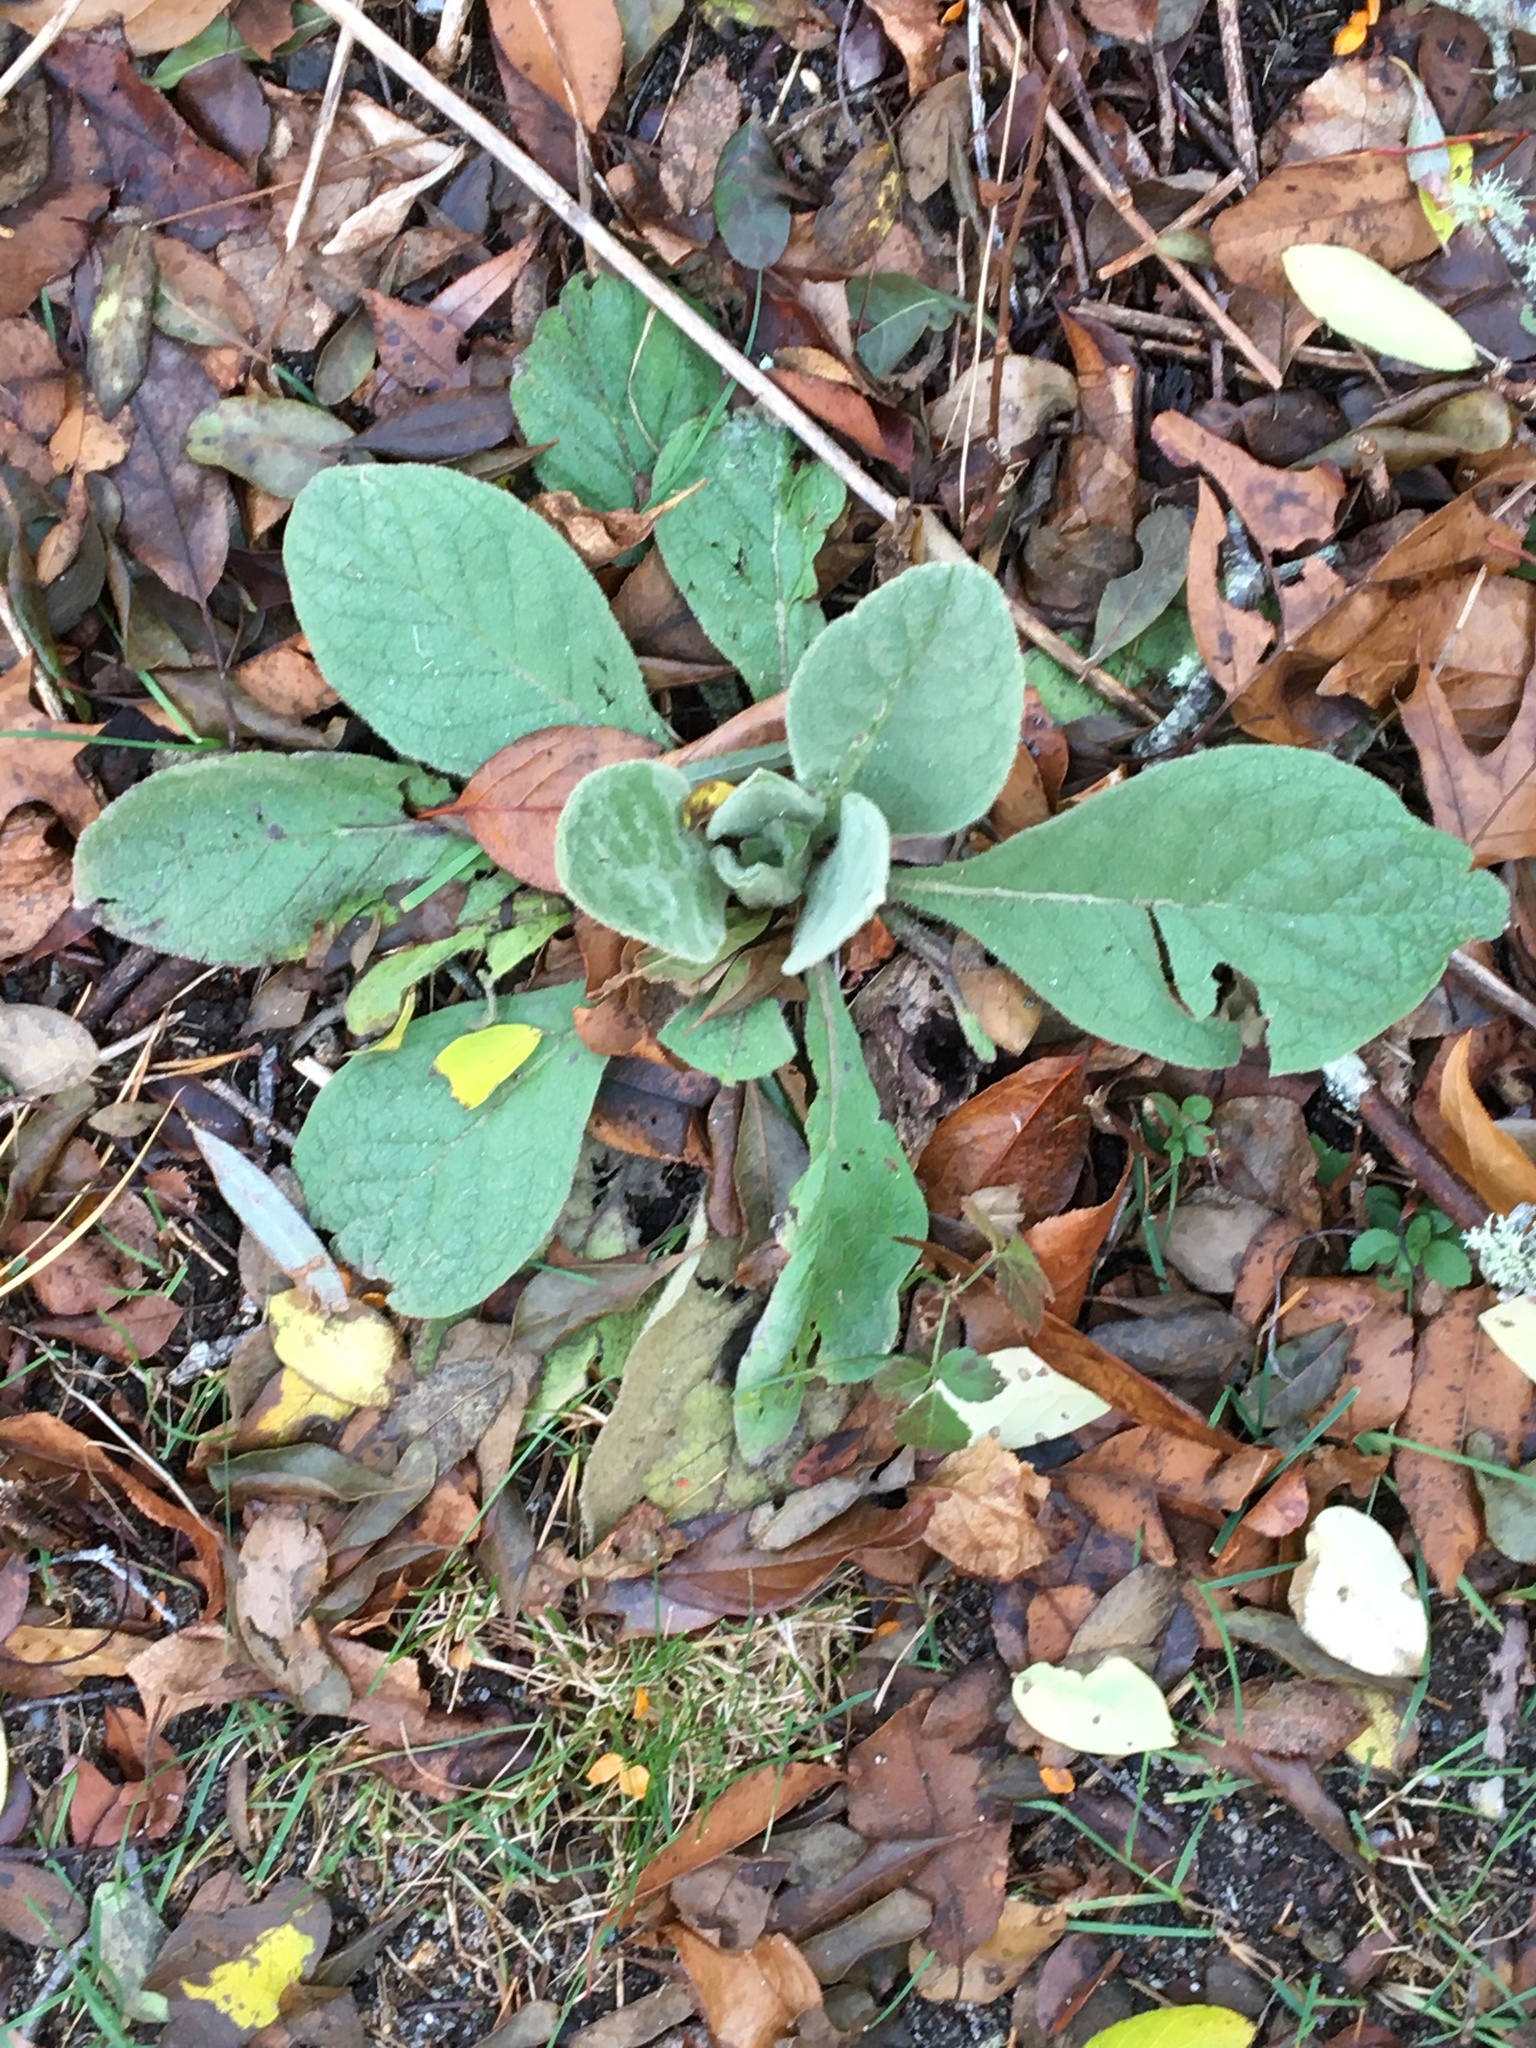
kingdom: Plantae
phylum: Tracheophyta
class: Magnoliopsida
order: Lamiales
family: Scrophulariaceae
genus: Verbascum
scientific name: Verbascum thapsus
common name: Common mullein
